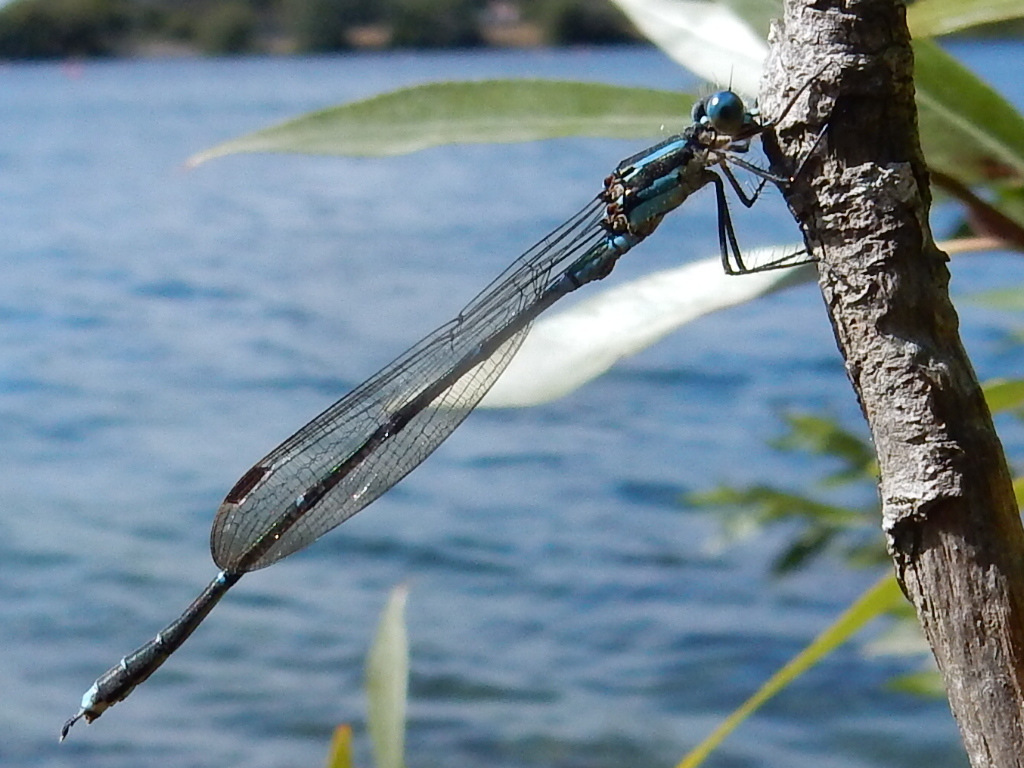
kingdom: Animalia
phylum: Arthropoda
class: Insecta
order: Odonata
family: Lestidae
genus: Austrolestes
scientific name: Austrolestes colensonis
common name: Blue damselfly
